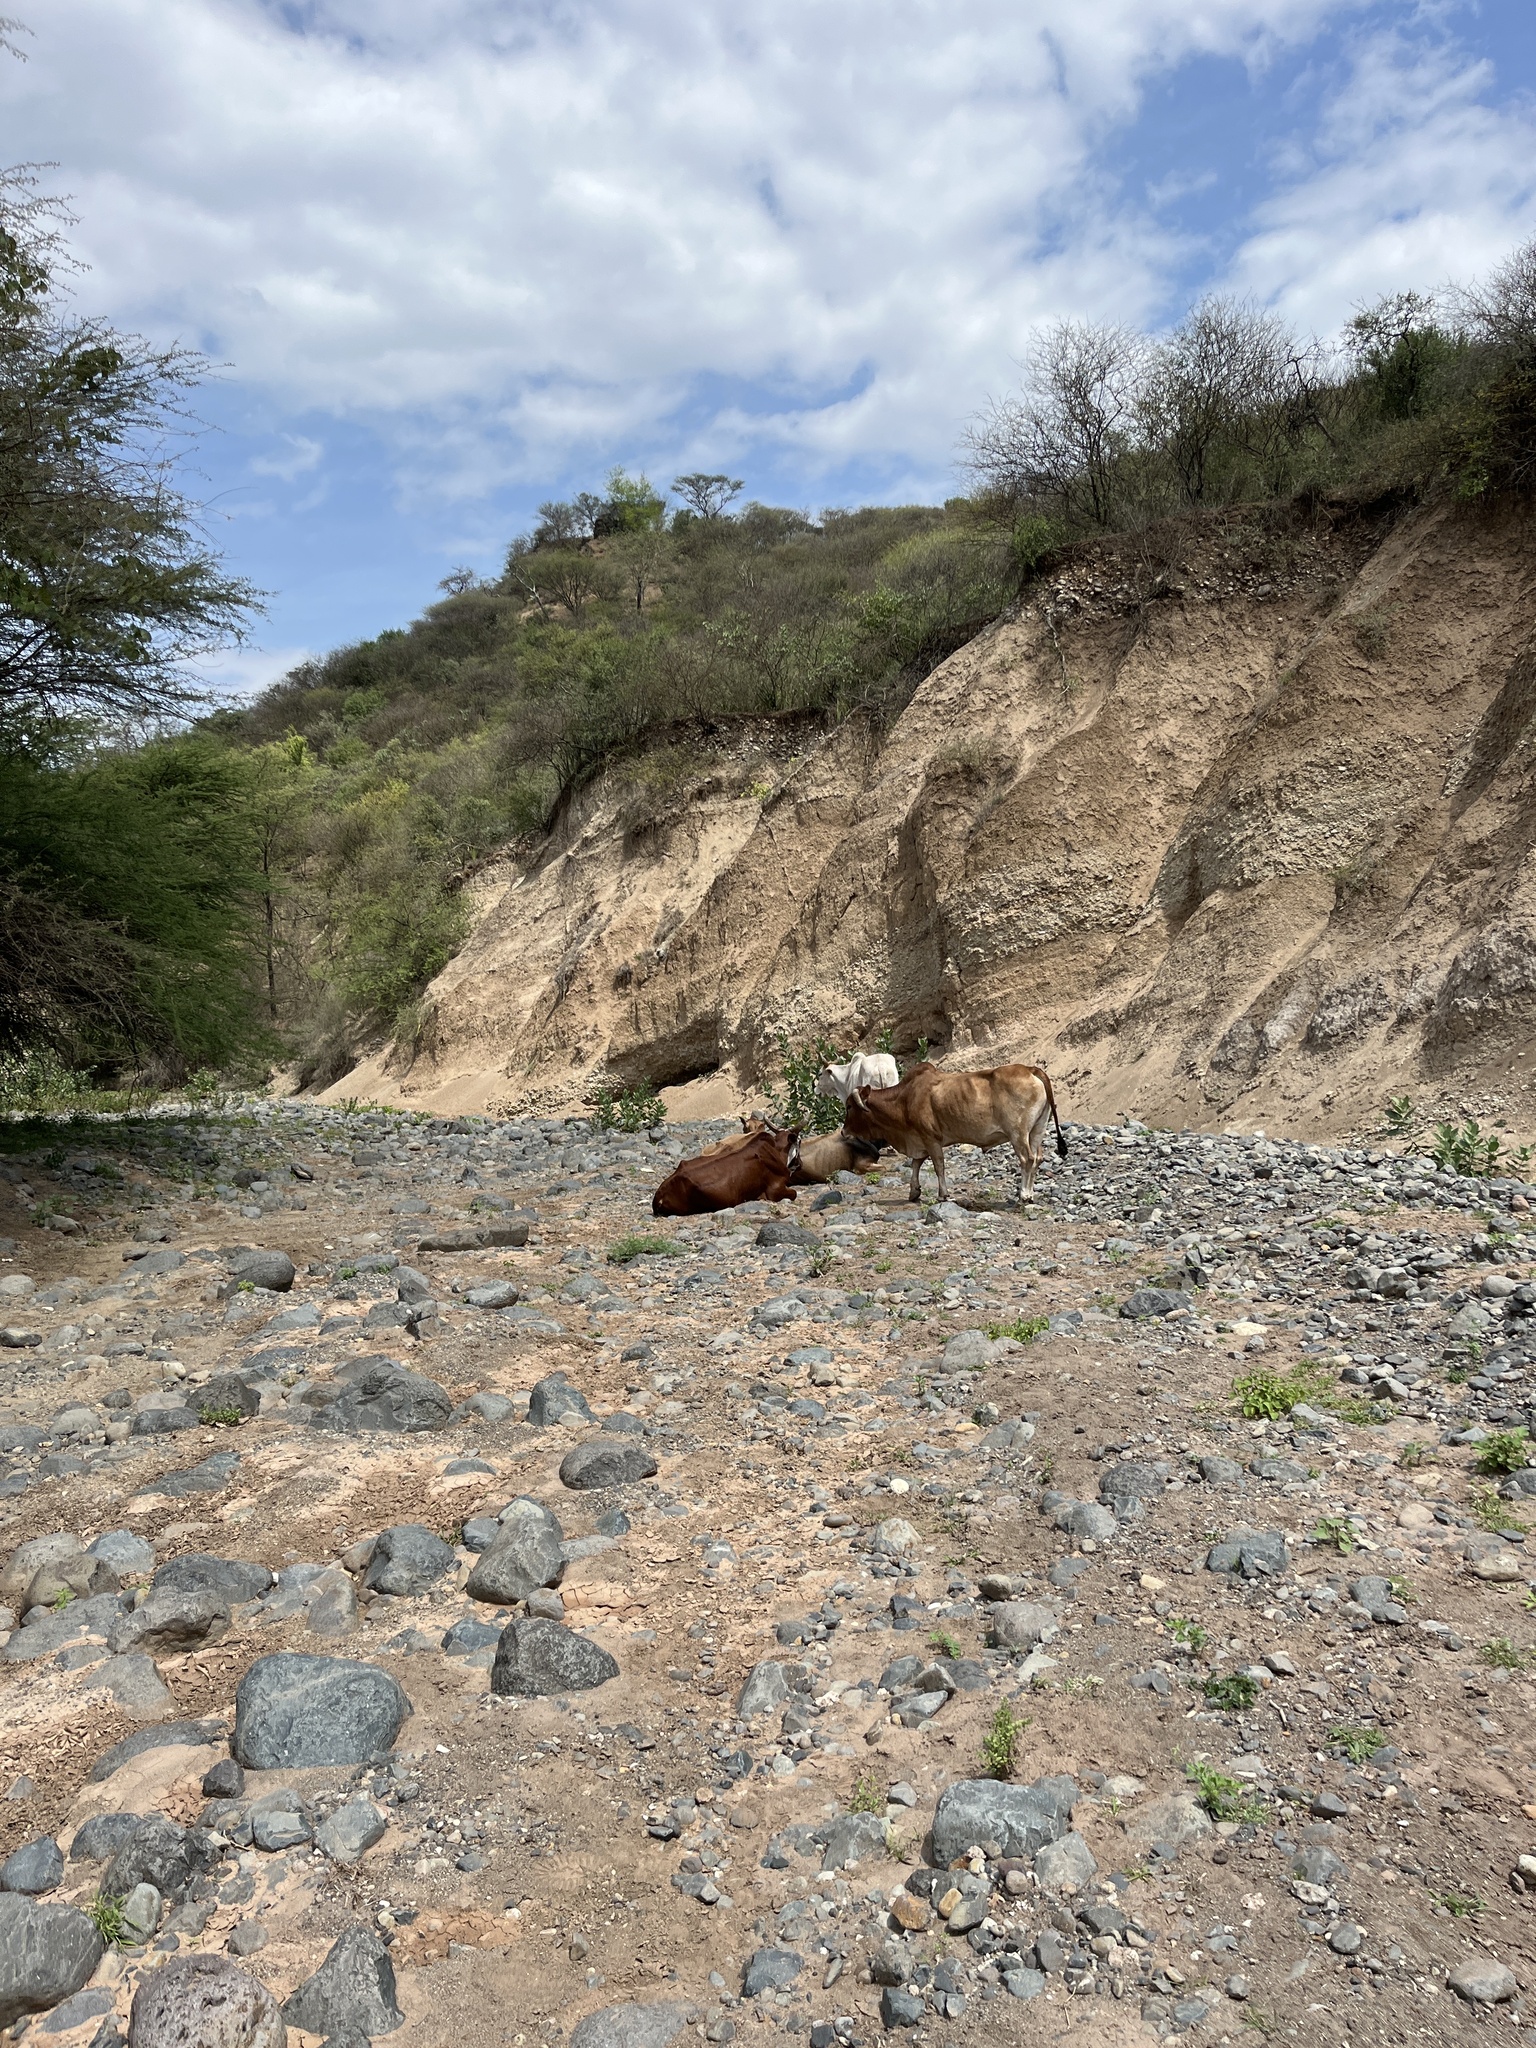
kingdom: Animalia
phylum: Chordata
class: Mammalia
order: Artiodactyla
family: Bovidae
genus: Bos
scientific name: Bos taurus
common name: Domesticated cattle
